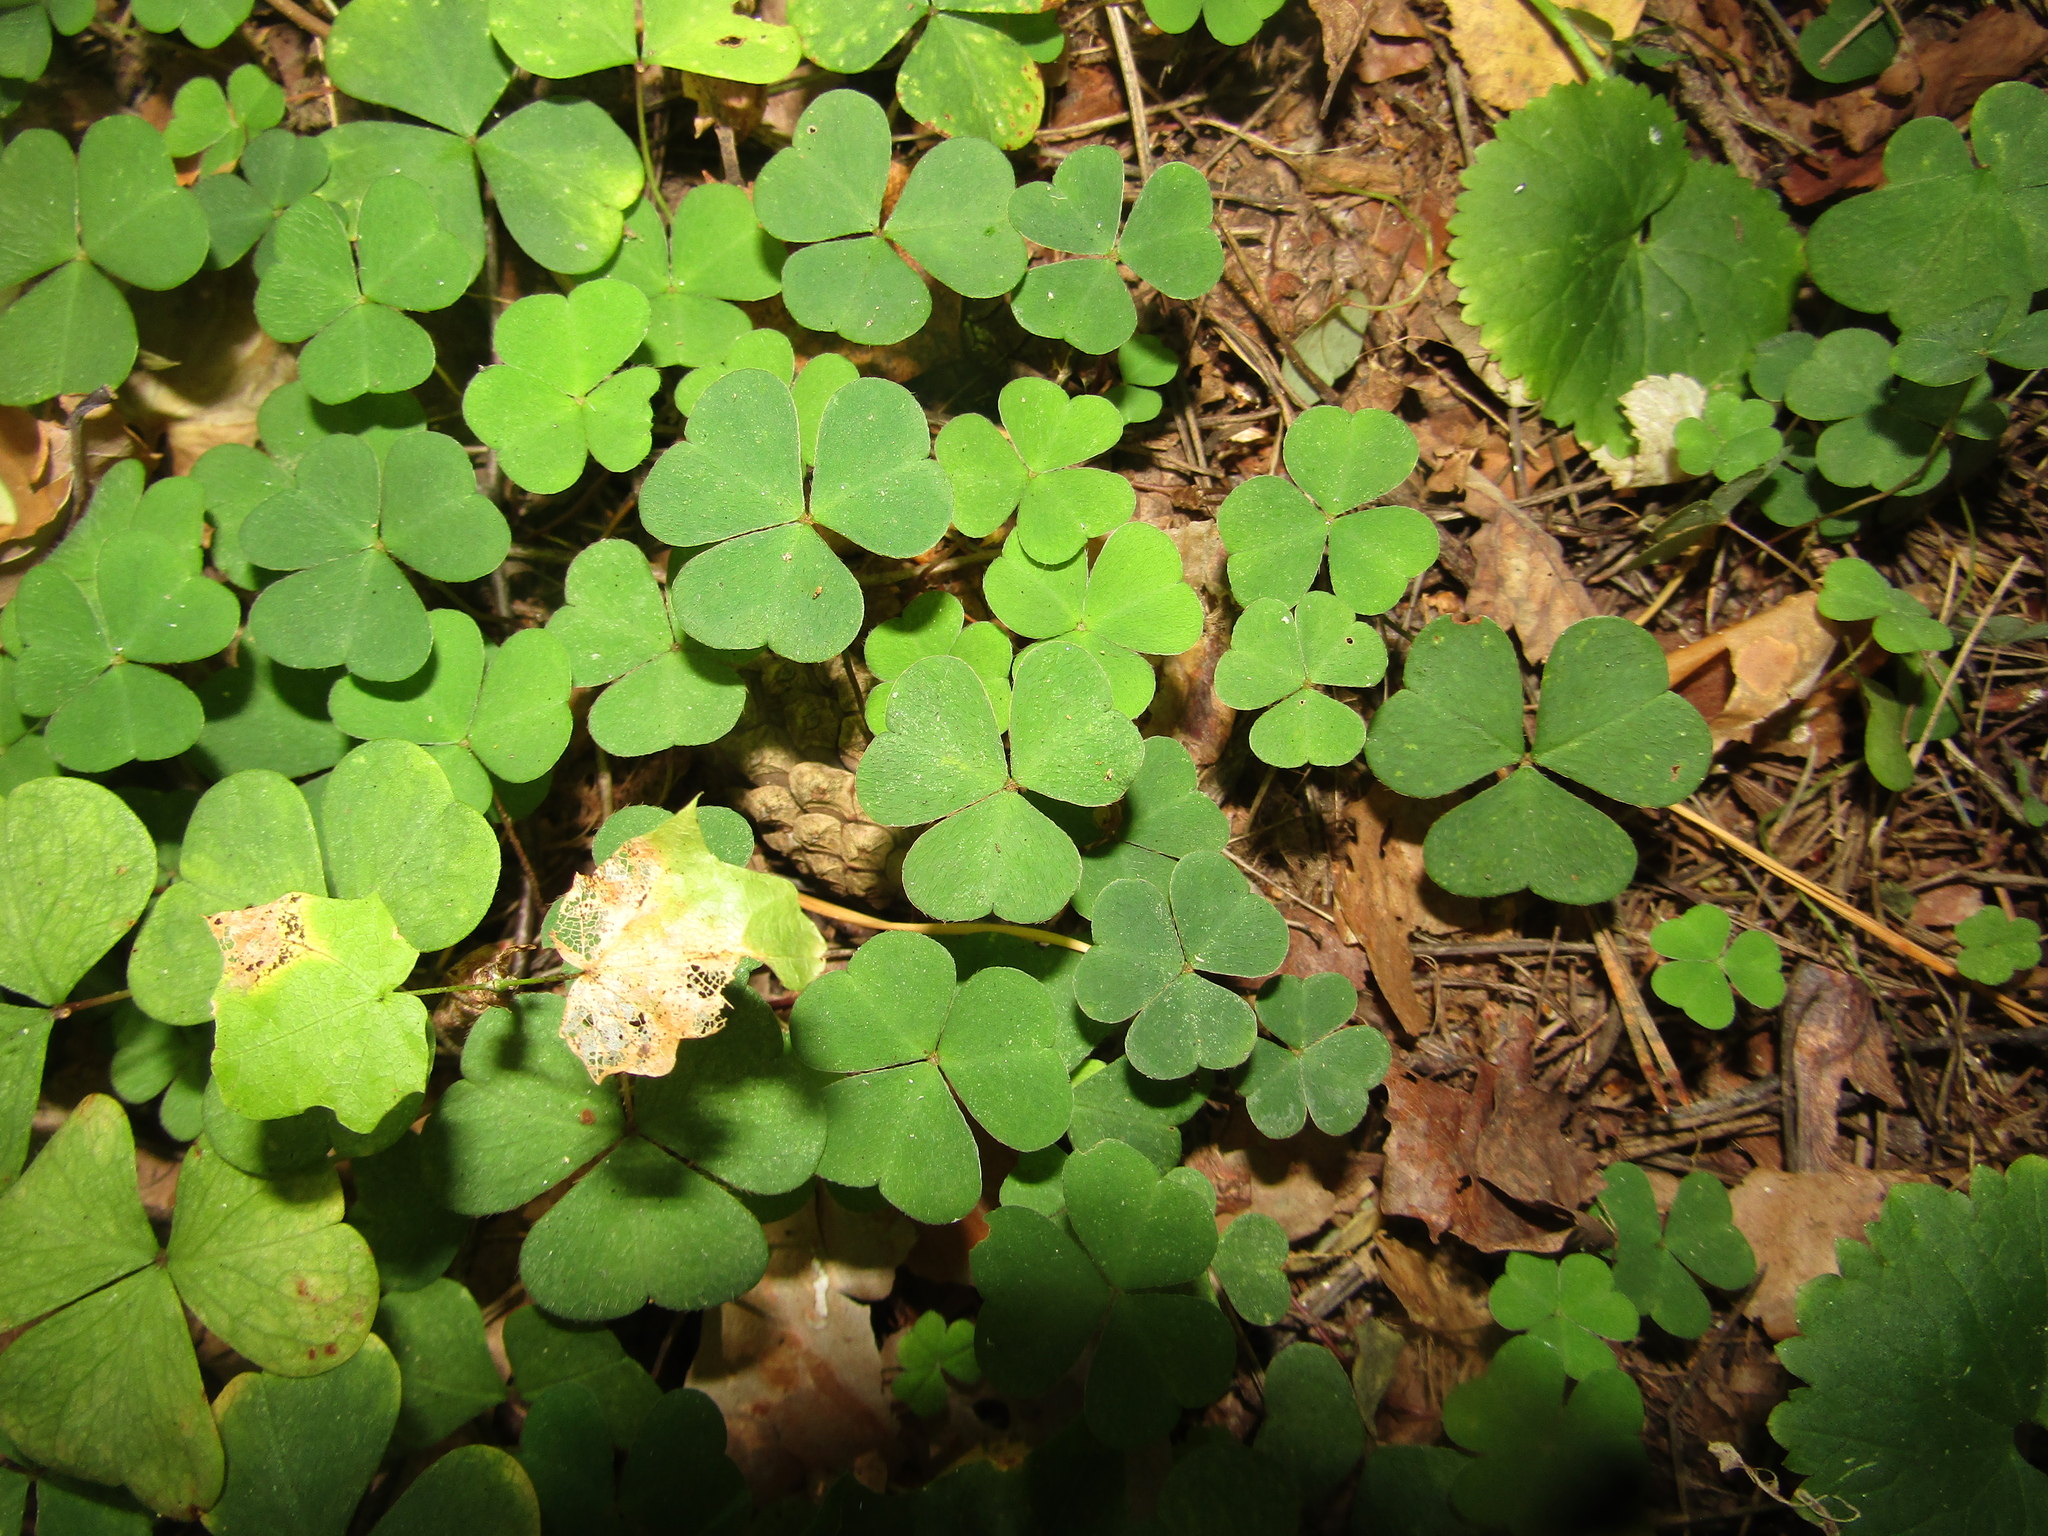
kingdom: Plantae
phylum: Tracheophyta
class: Magnoliopsida
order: Oxalidales
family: Oxalidaceae
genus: Oxalis
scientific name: Oxalis acetosella
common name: Wood-sorrel
